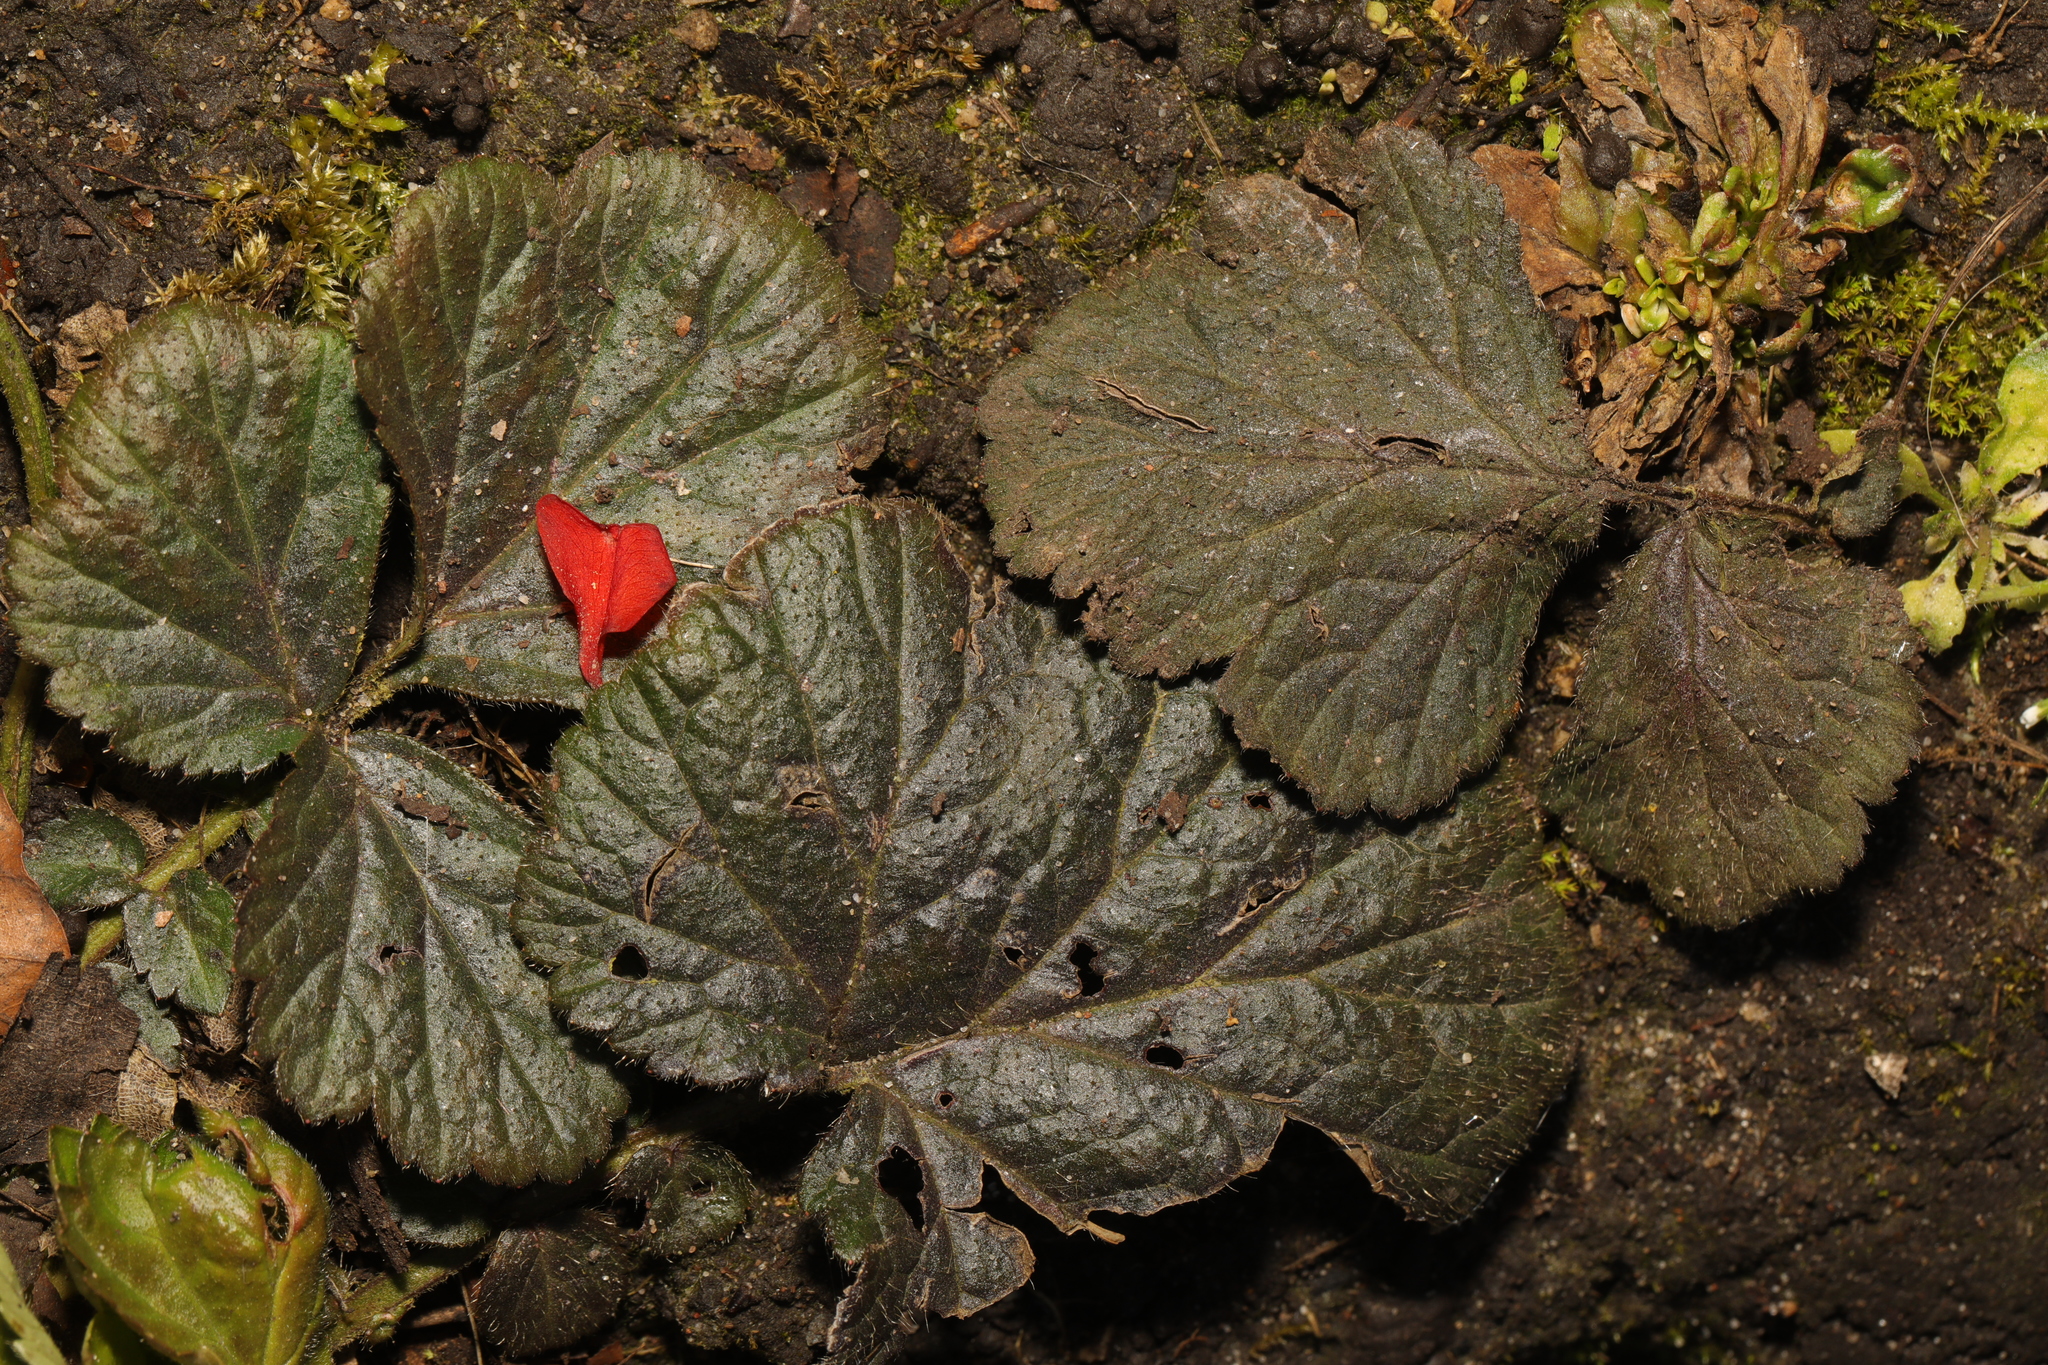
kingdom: Plantae
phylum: Tracheophyta
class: Magnoliopsida
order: Rosales
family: Rosaceae
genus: Geum
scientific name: Geum urbanum
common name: Wood avens
